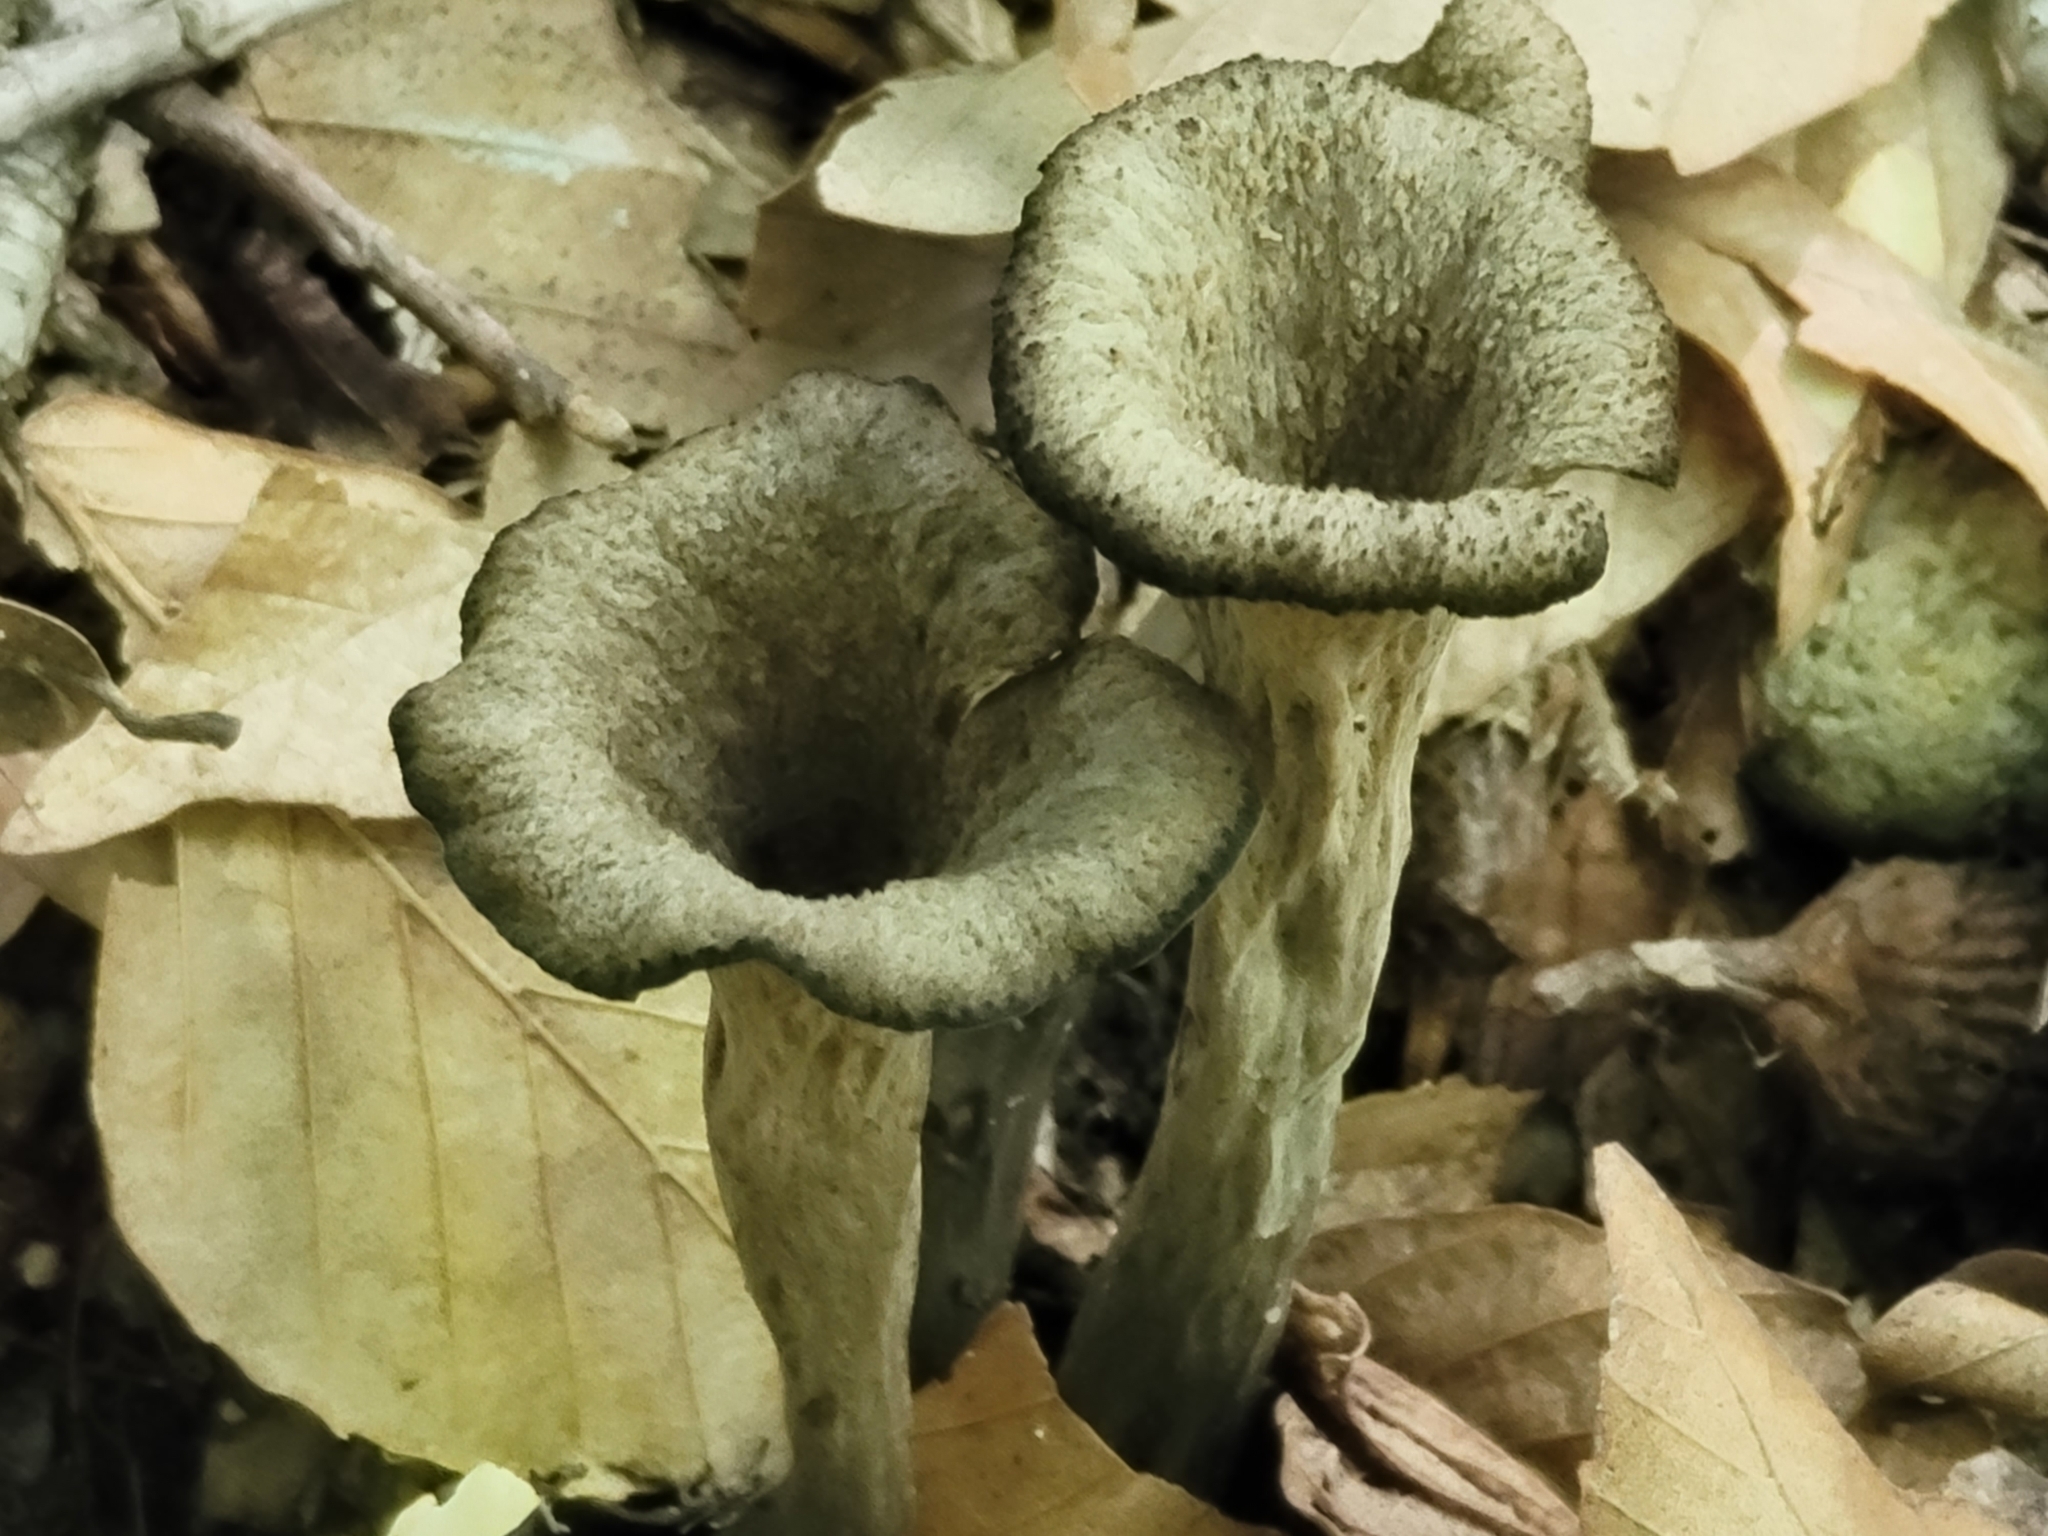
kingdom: Fungi
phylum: Basidiomycota
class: Agaricomycetes
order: Cantharellales
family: Hydnaceae
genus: Craterellus
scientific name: Craterellus cornucopioides
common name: Horn of plenty
